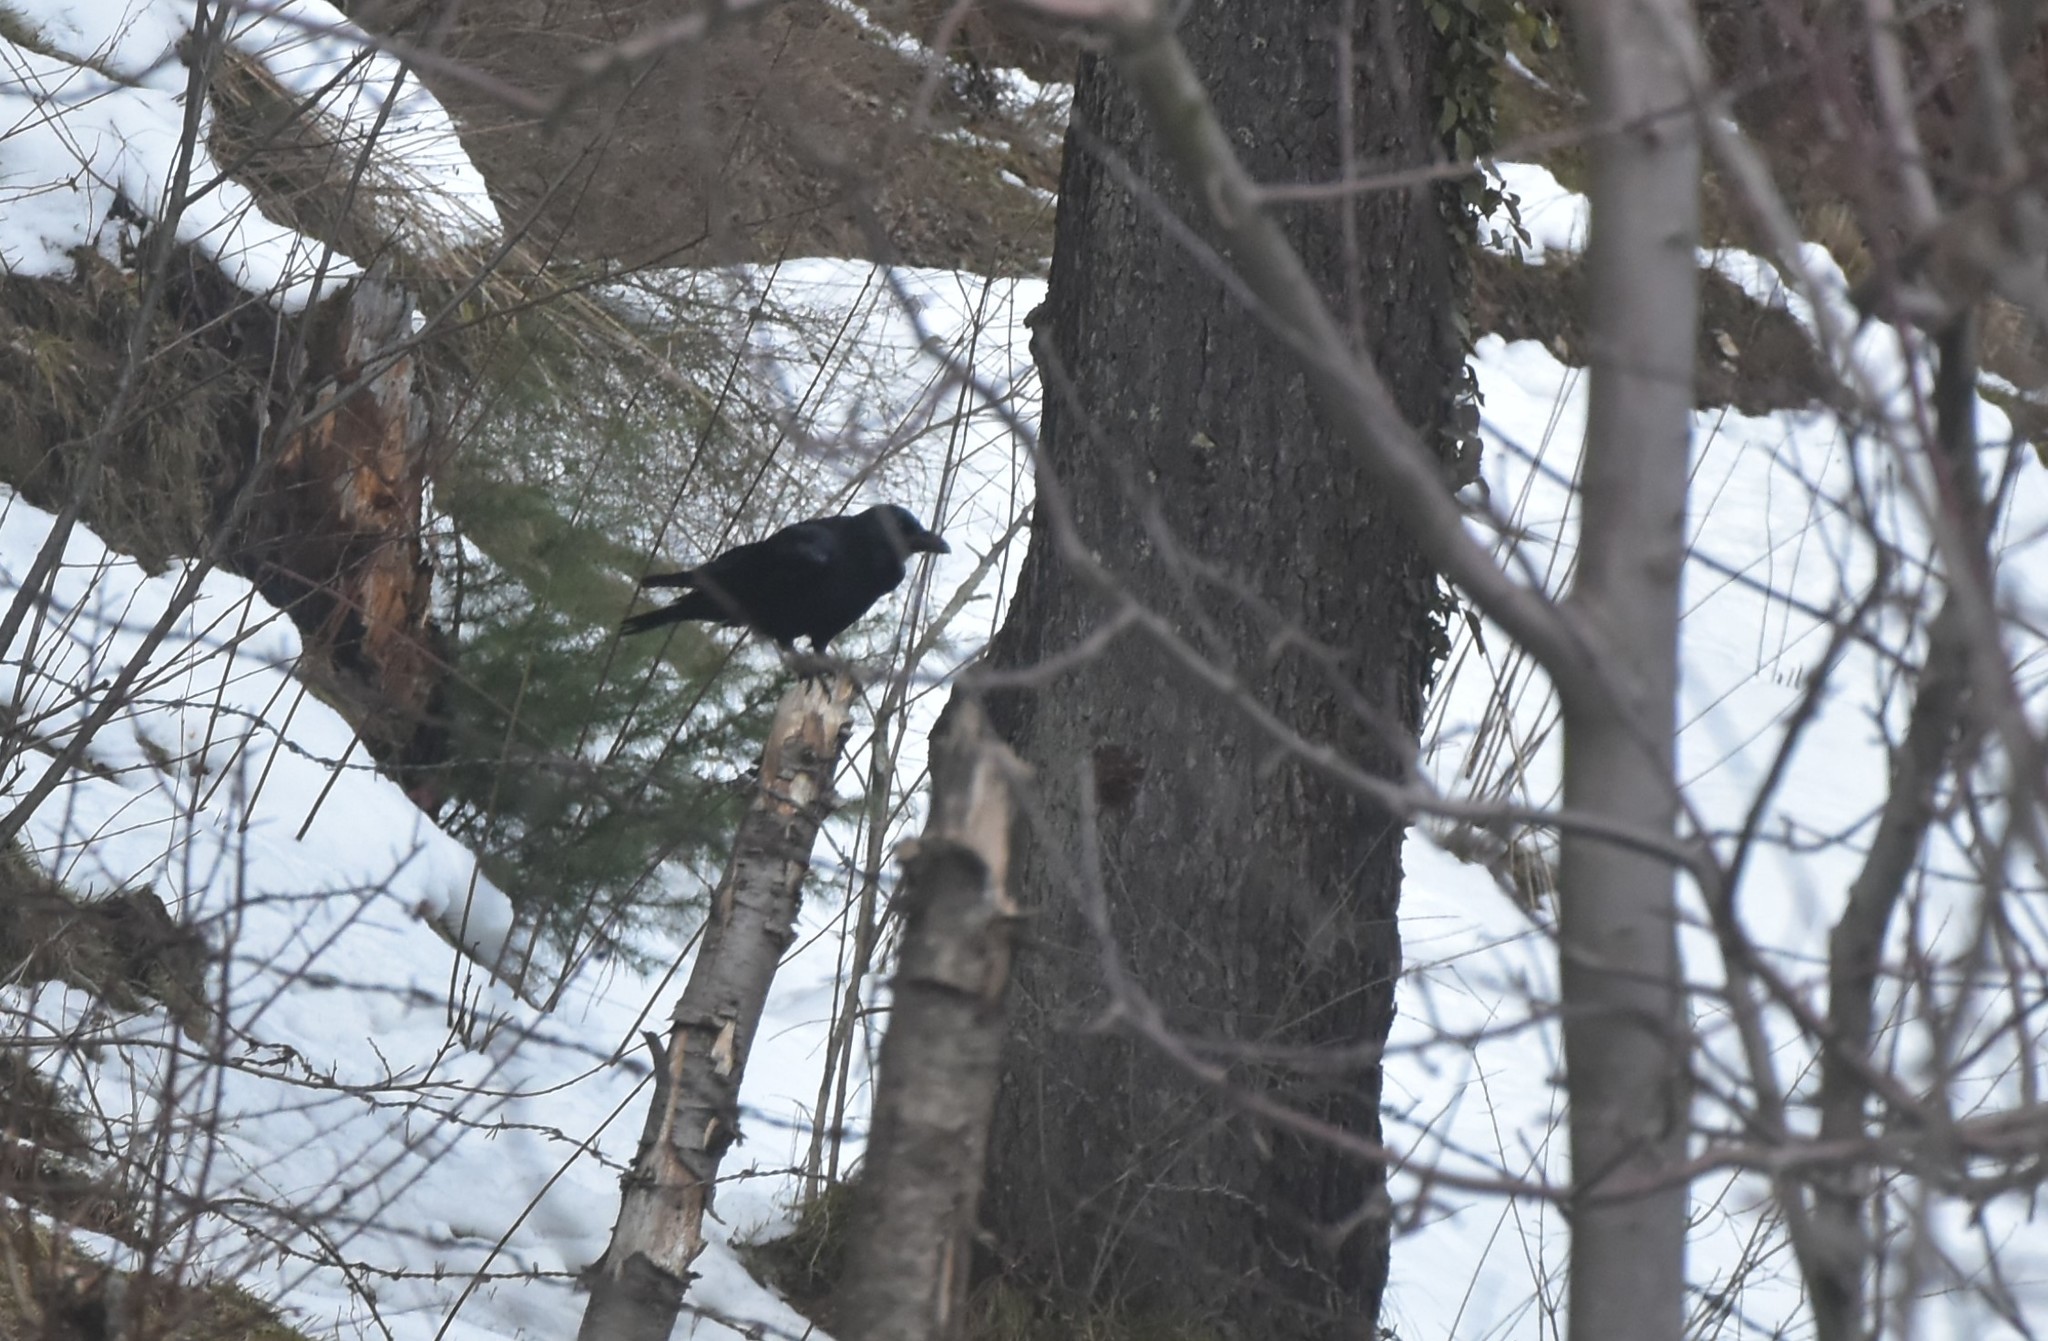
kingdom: Animalia
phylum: Chordata
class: Aves
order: Passeriformes
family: Corvidae
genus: Corvus
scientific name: Corvus macrorhynchos
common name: Large-billed crow
